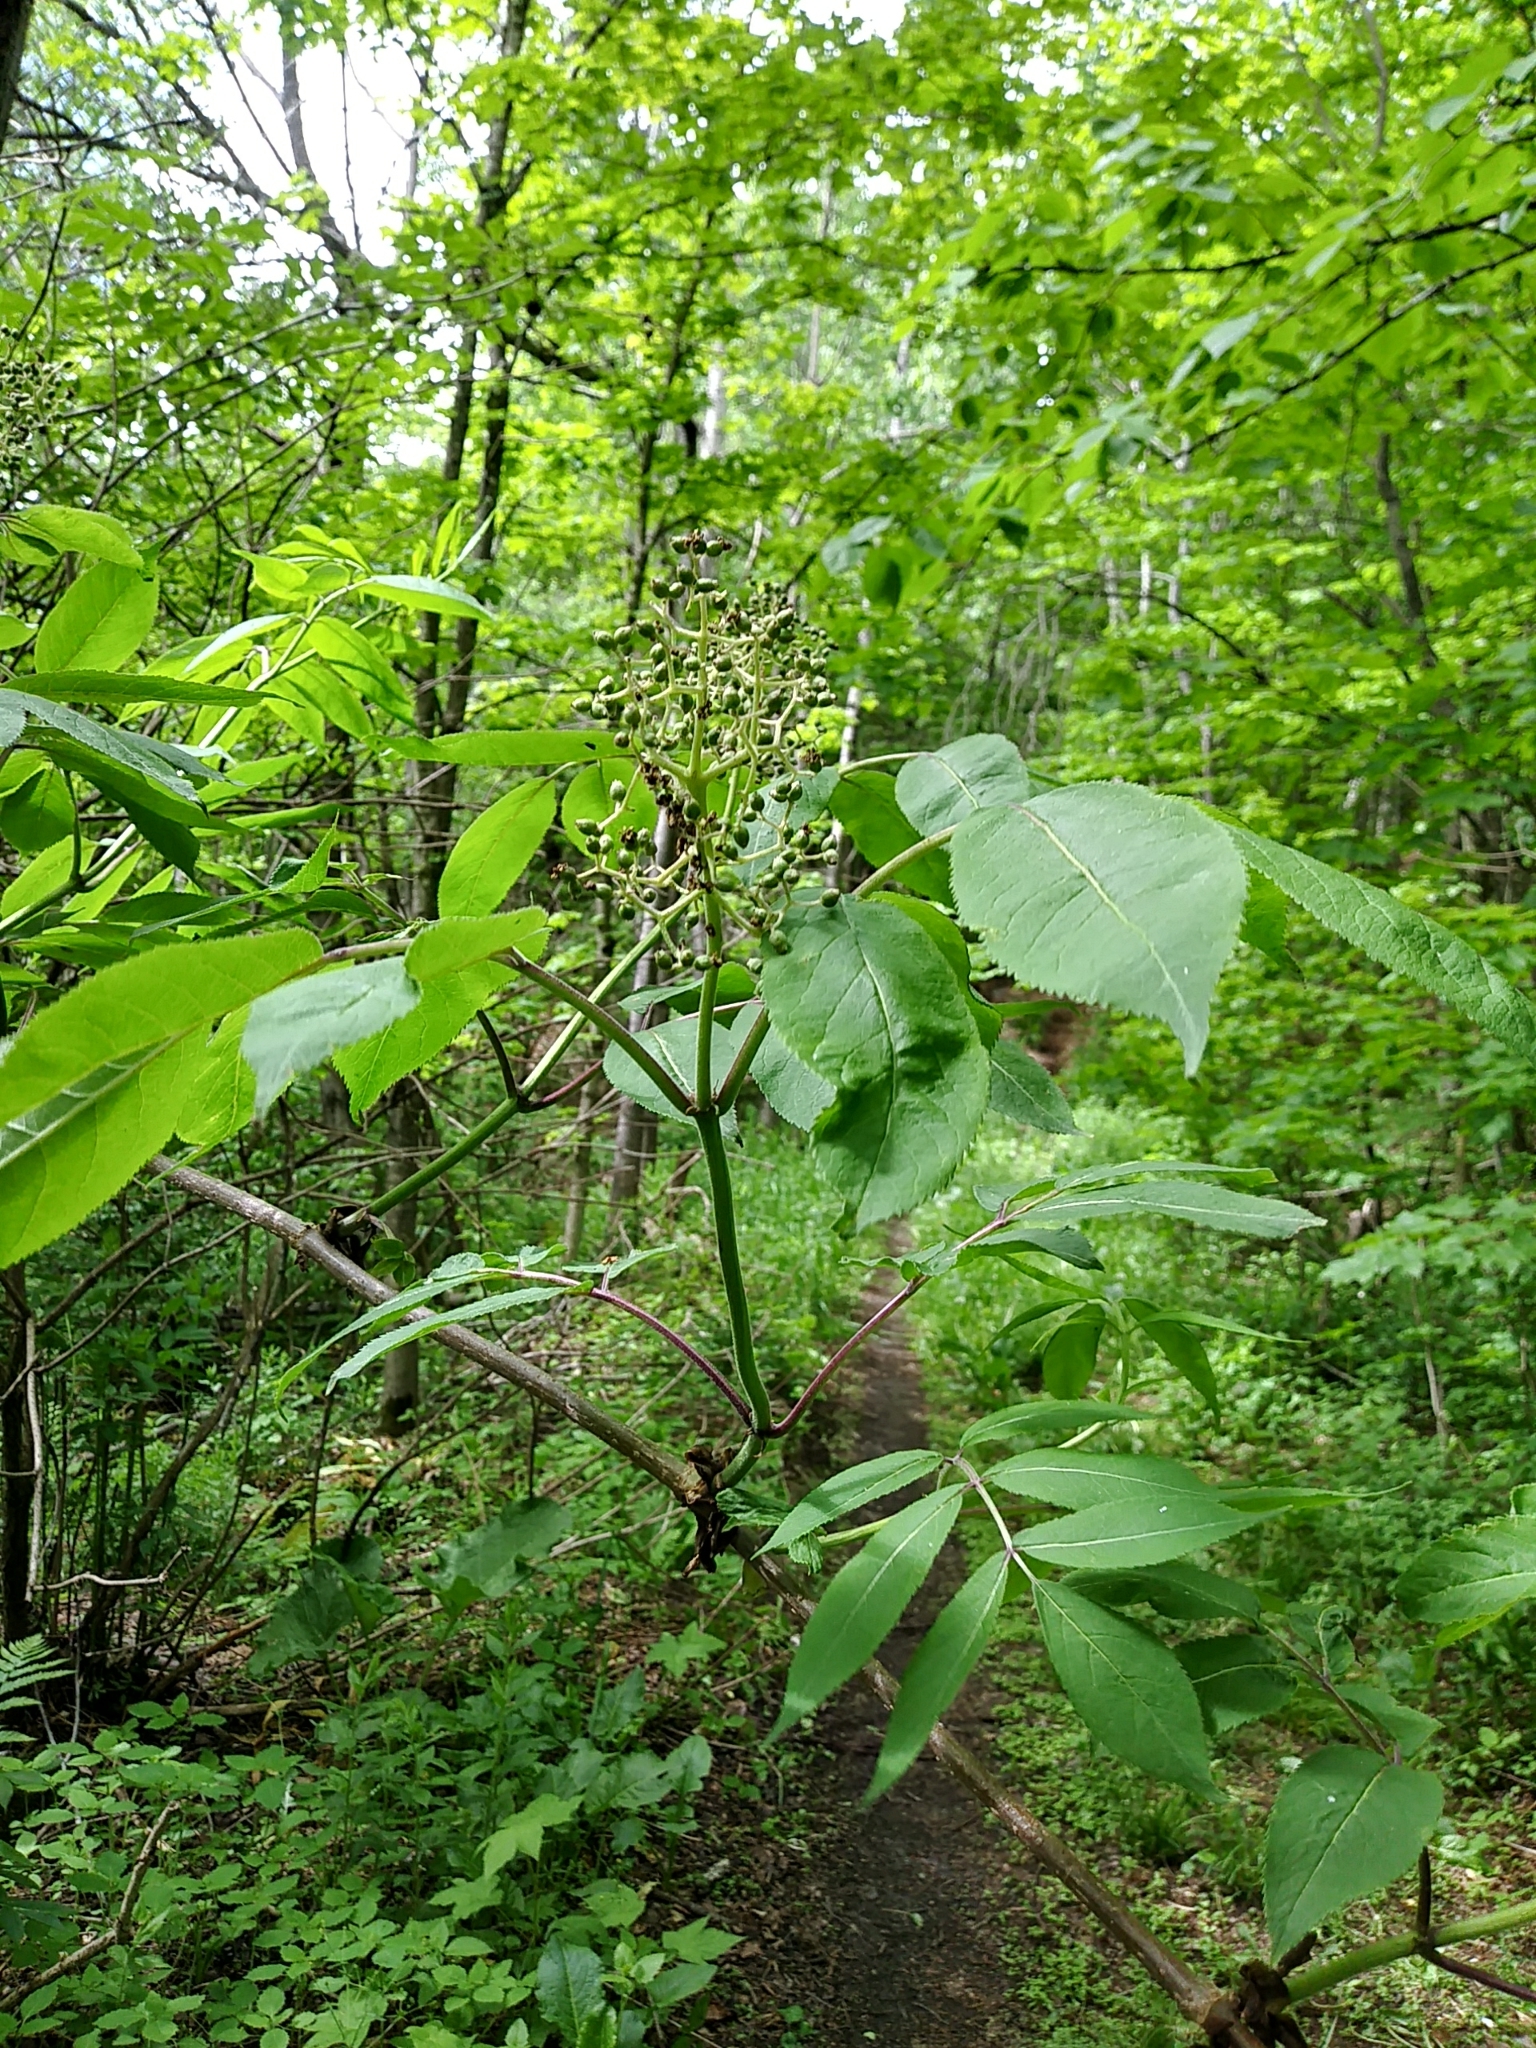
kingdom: Plantae
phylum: Tracheophyta
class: Magnoliopsida
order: Dipsacales
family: Viburnaceae
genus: Sambucus
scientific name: Sambucus racemosa
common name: Red-berried elder
